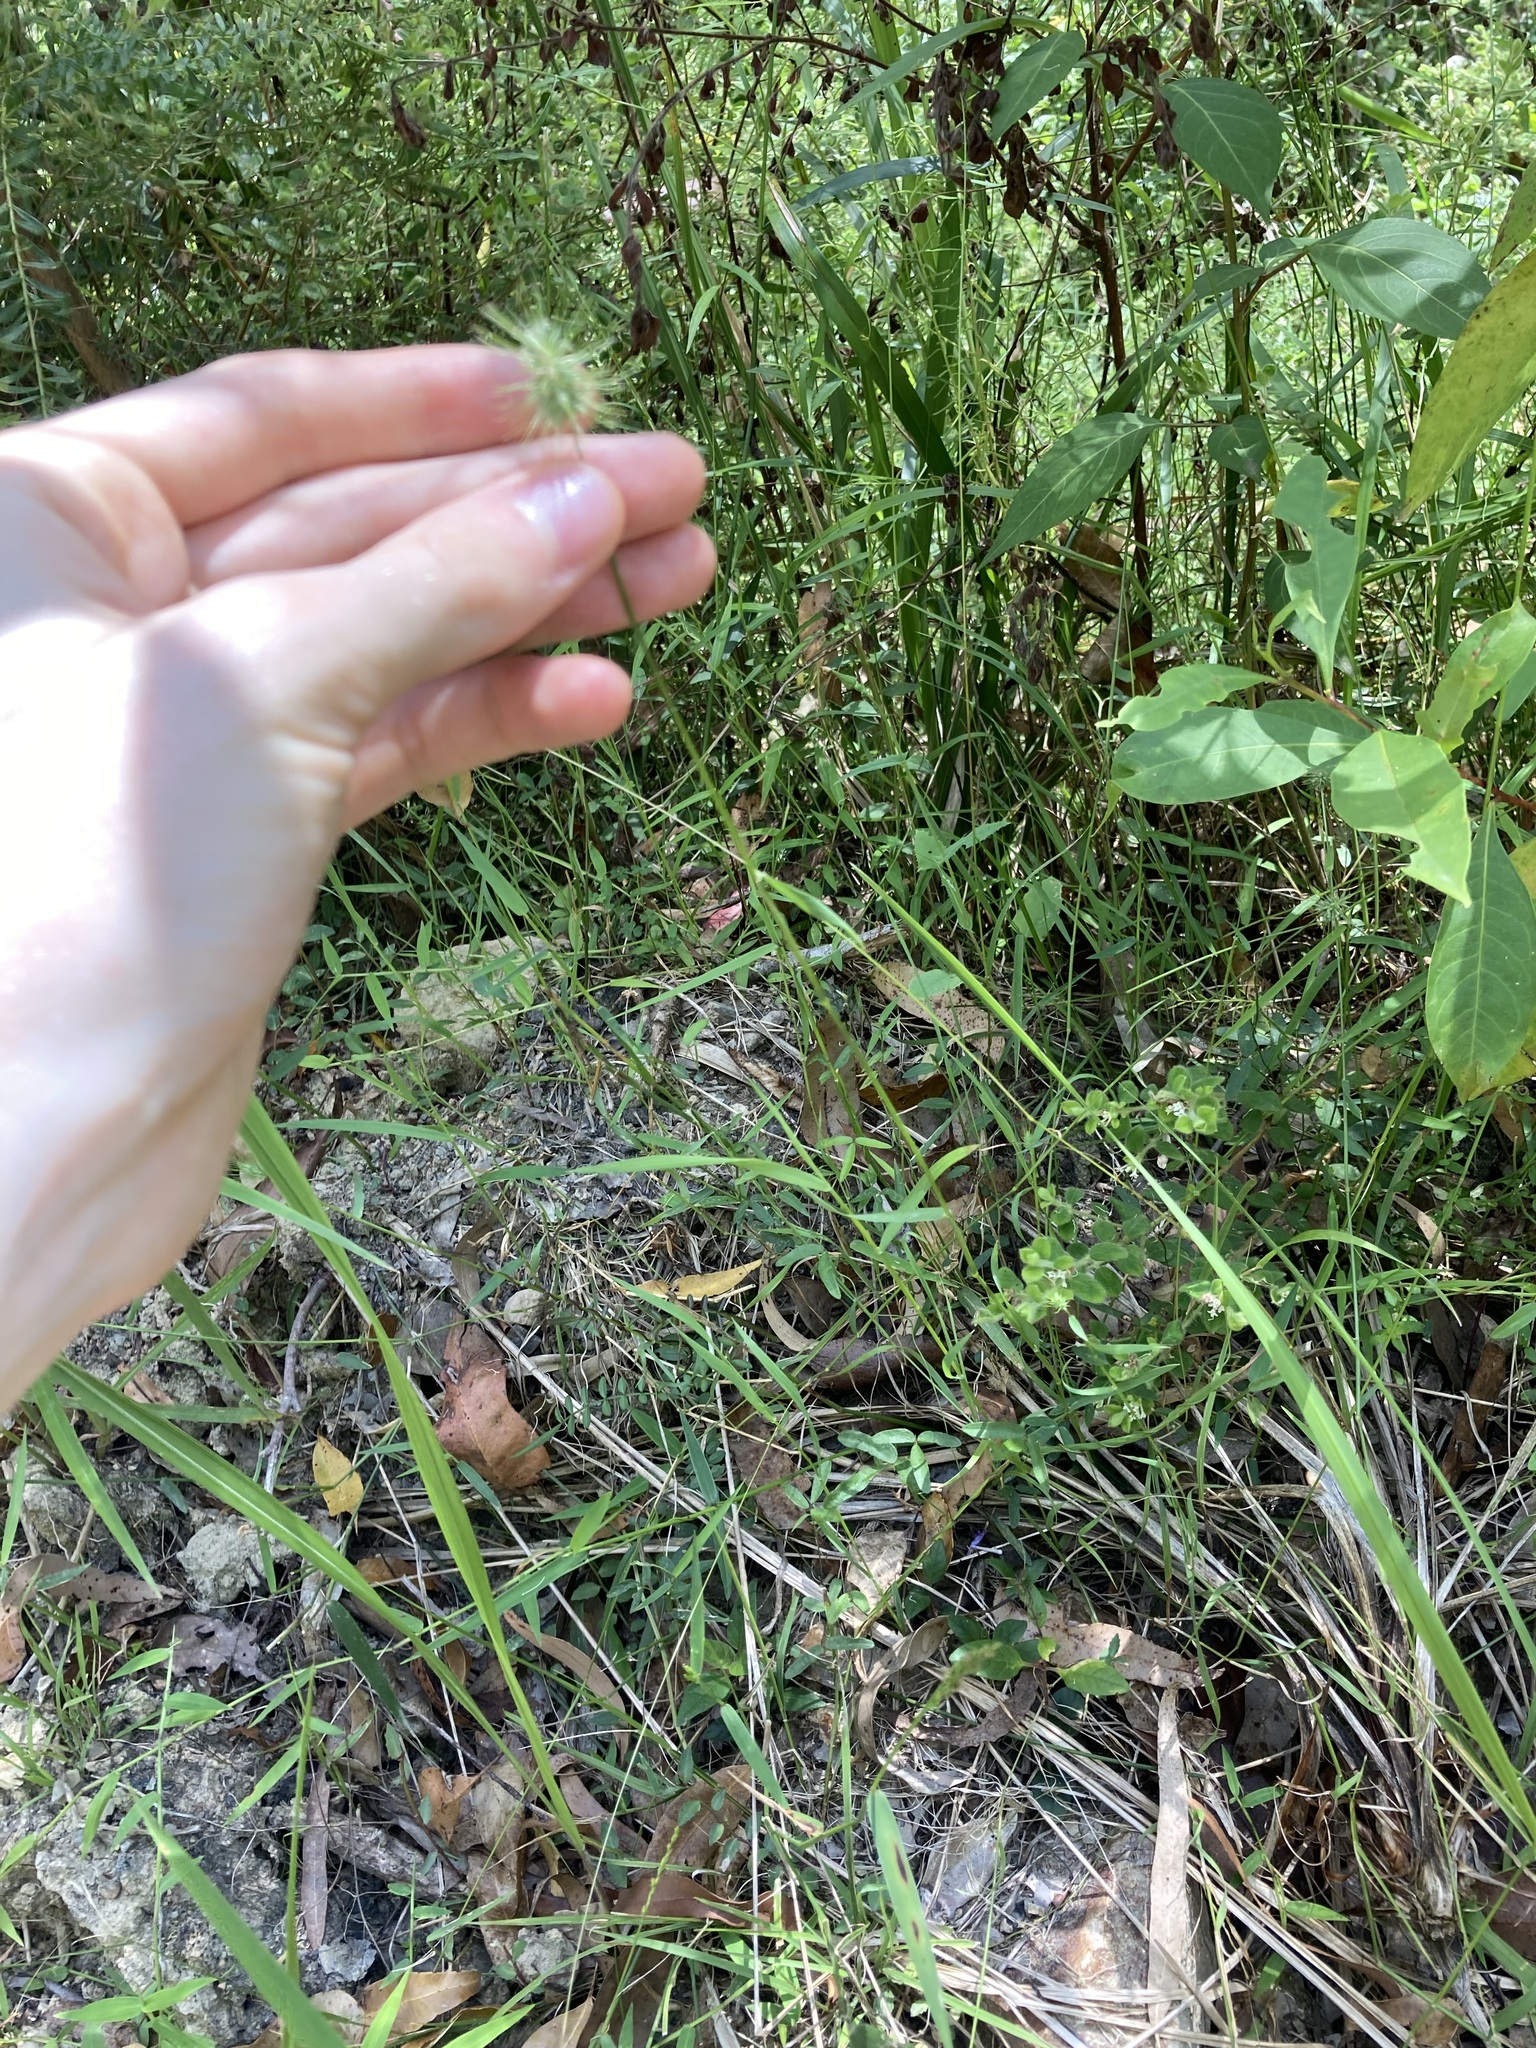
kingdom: Plantae
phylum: Tracheophyta
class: Liliopsida
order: Poales
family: Poaceae
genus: Echinopogon
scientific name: Echinopogon ovatus
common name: Hedgehog-grass
